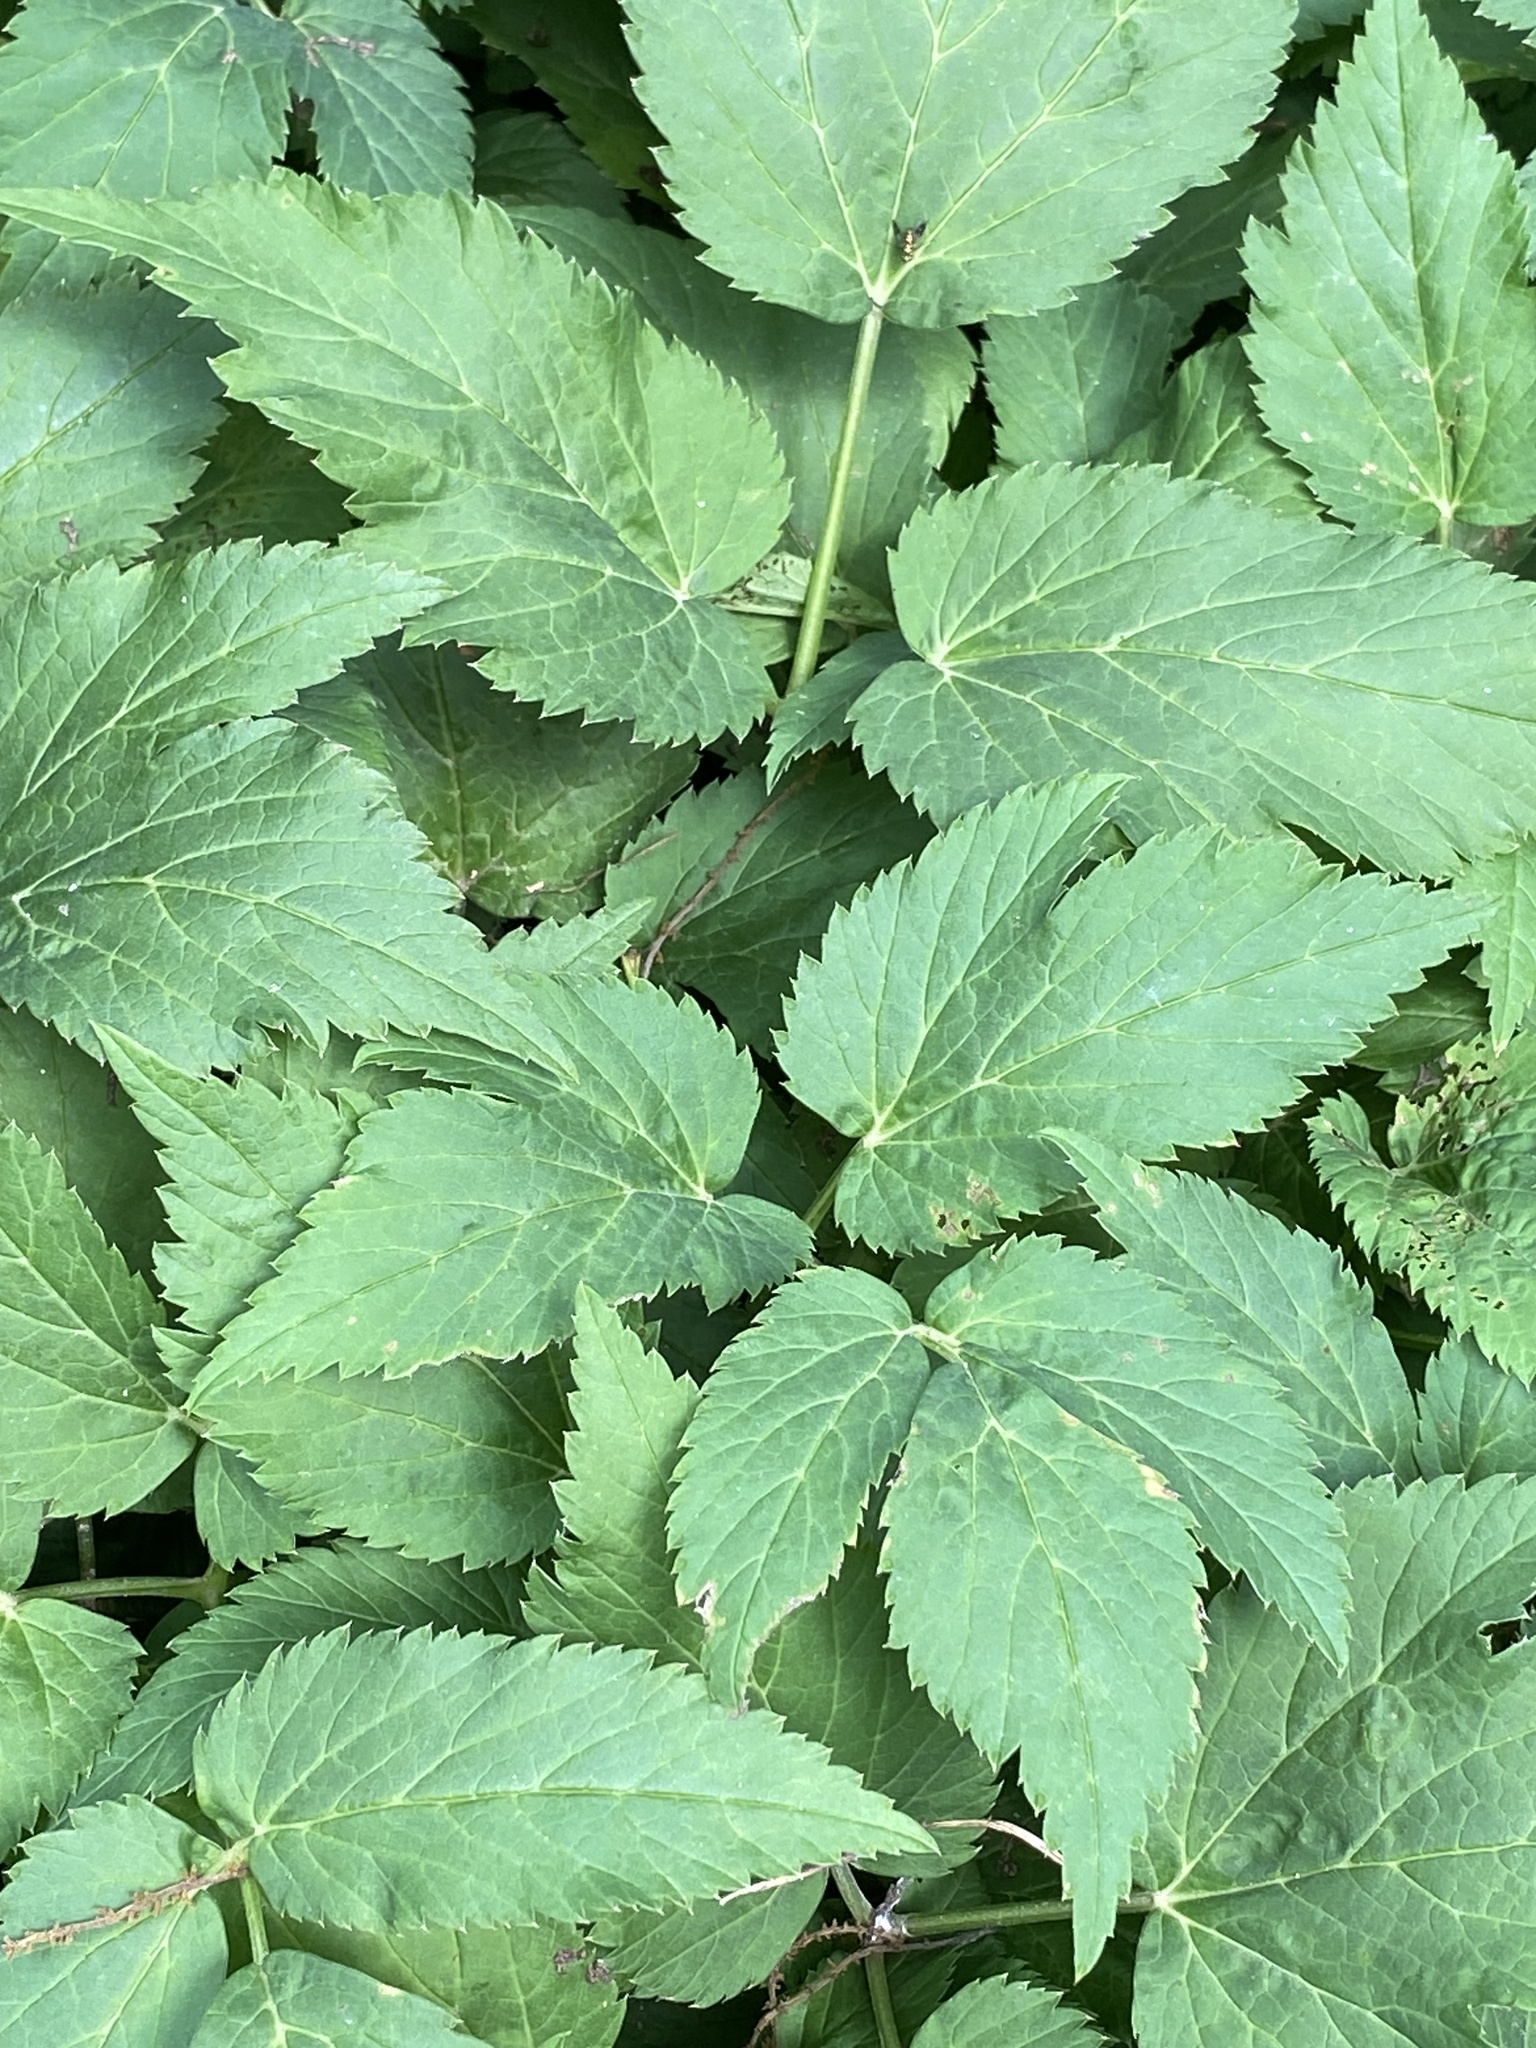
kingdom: Plantae
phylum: Tracheophyta
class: Magnoliopsida
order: Apiales
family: Apiaceae
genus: Aegopodium
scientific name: Aegopodium podagraria
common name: Ground-elder
